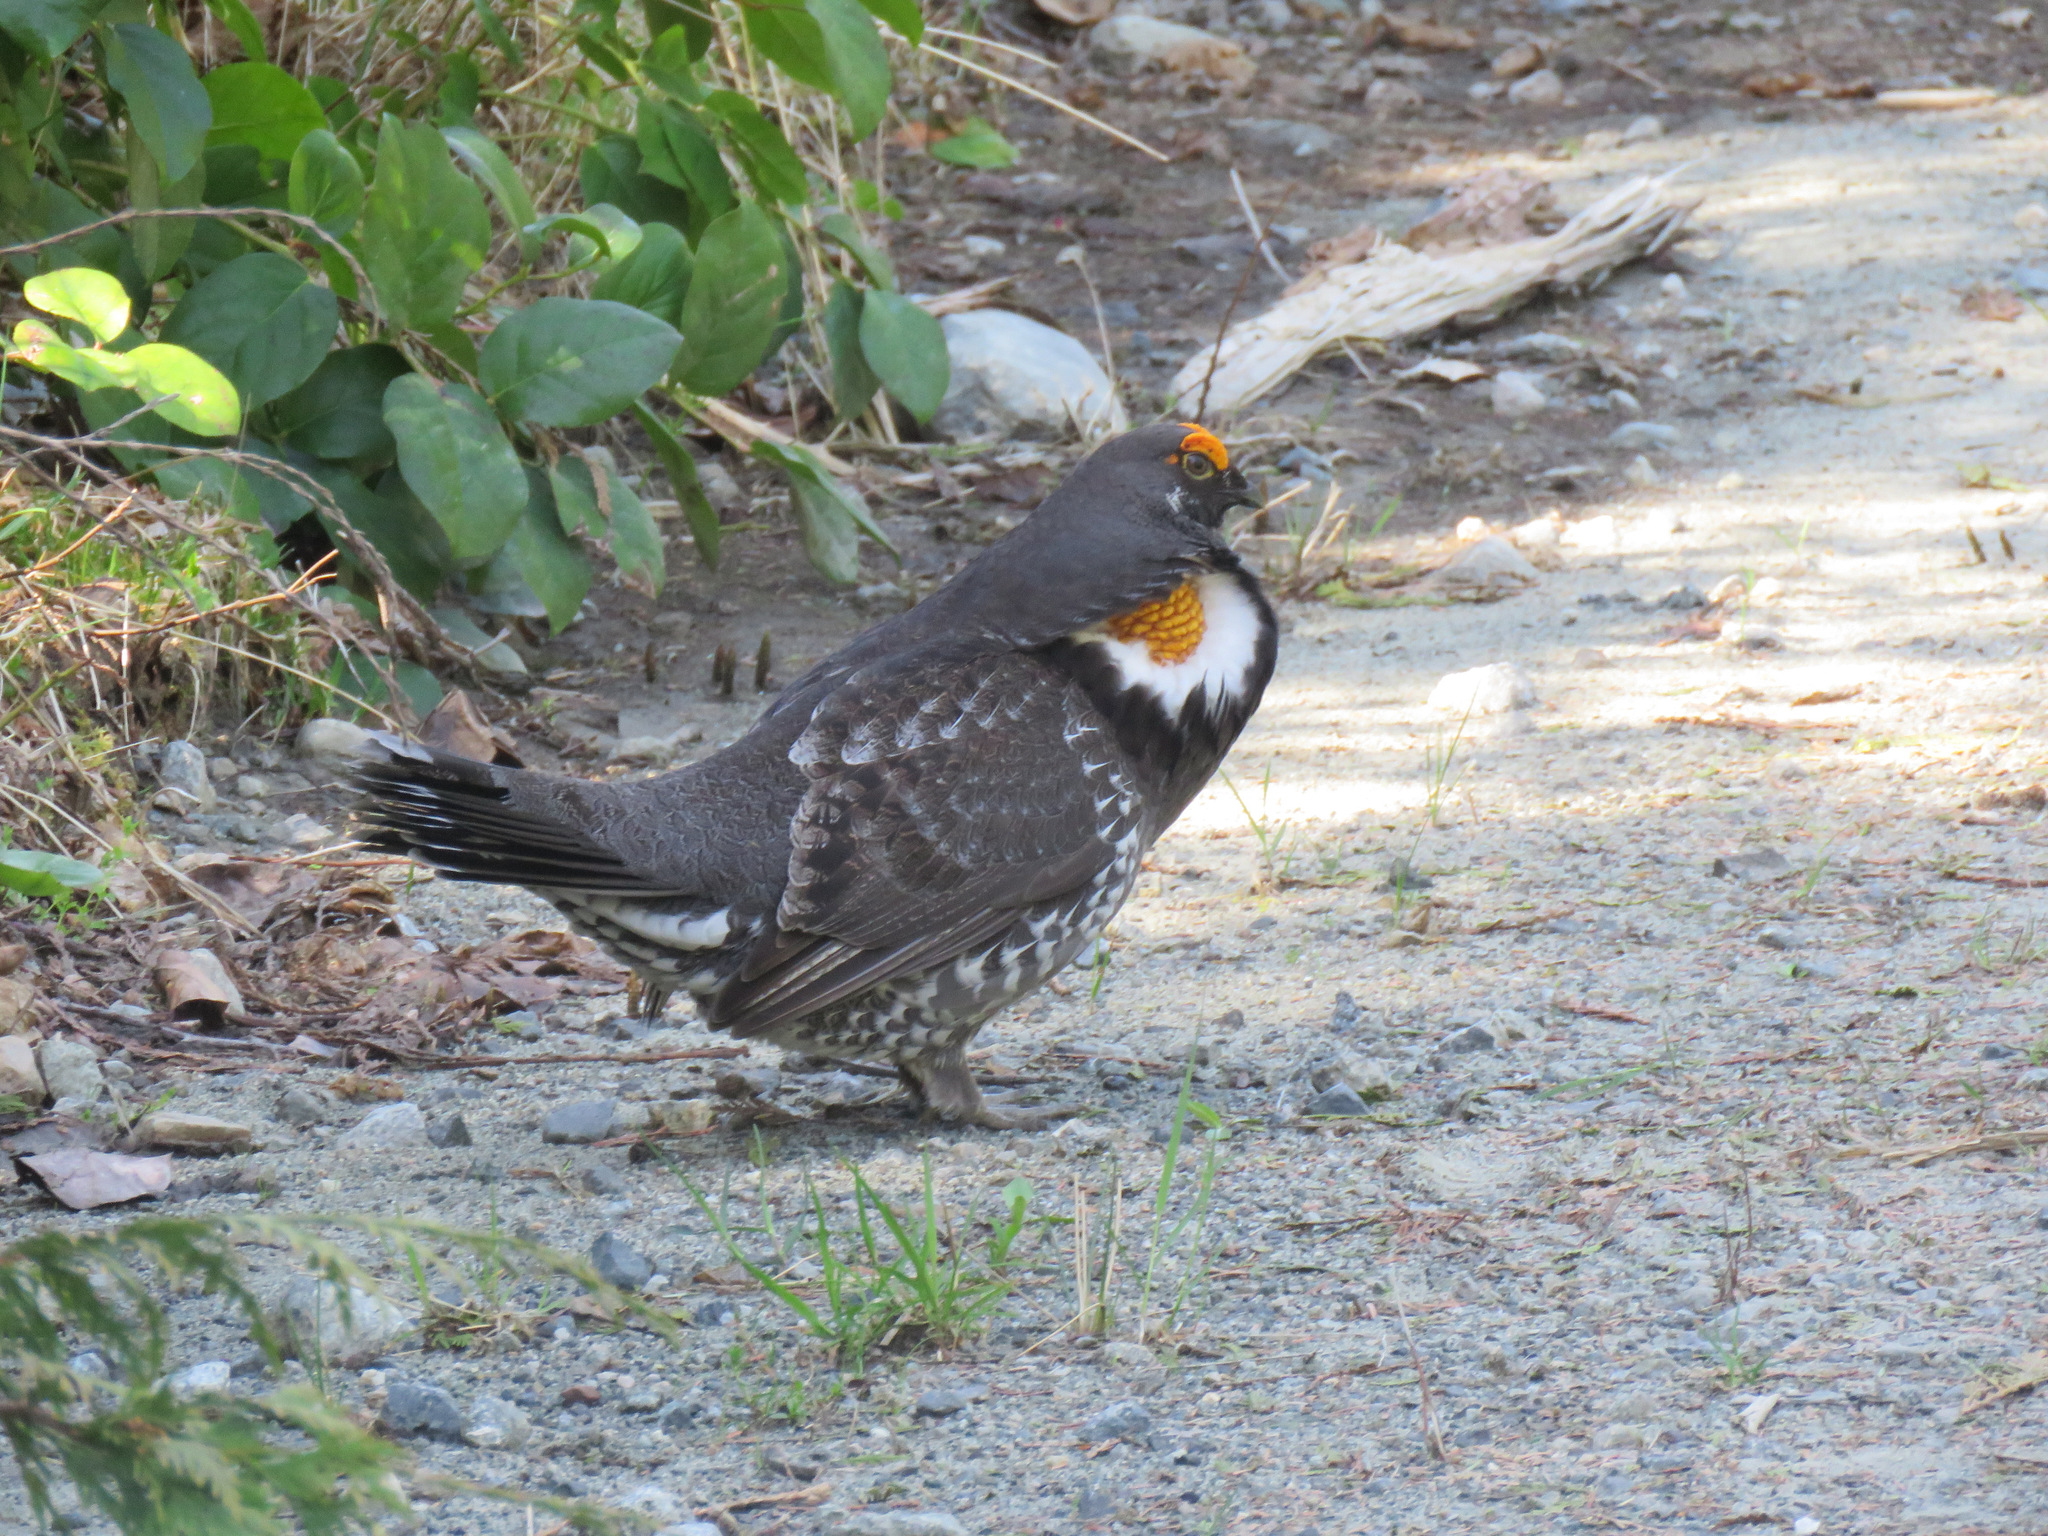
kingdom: Animalia
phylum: Chordata
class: Aves
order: Galliformes
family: Phasianidae
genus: Dendragapus
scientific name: Dendragapus fuliginosus
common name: Sooty grouse
